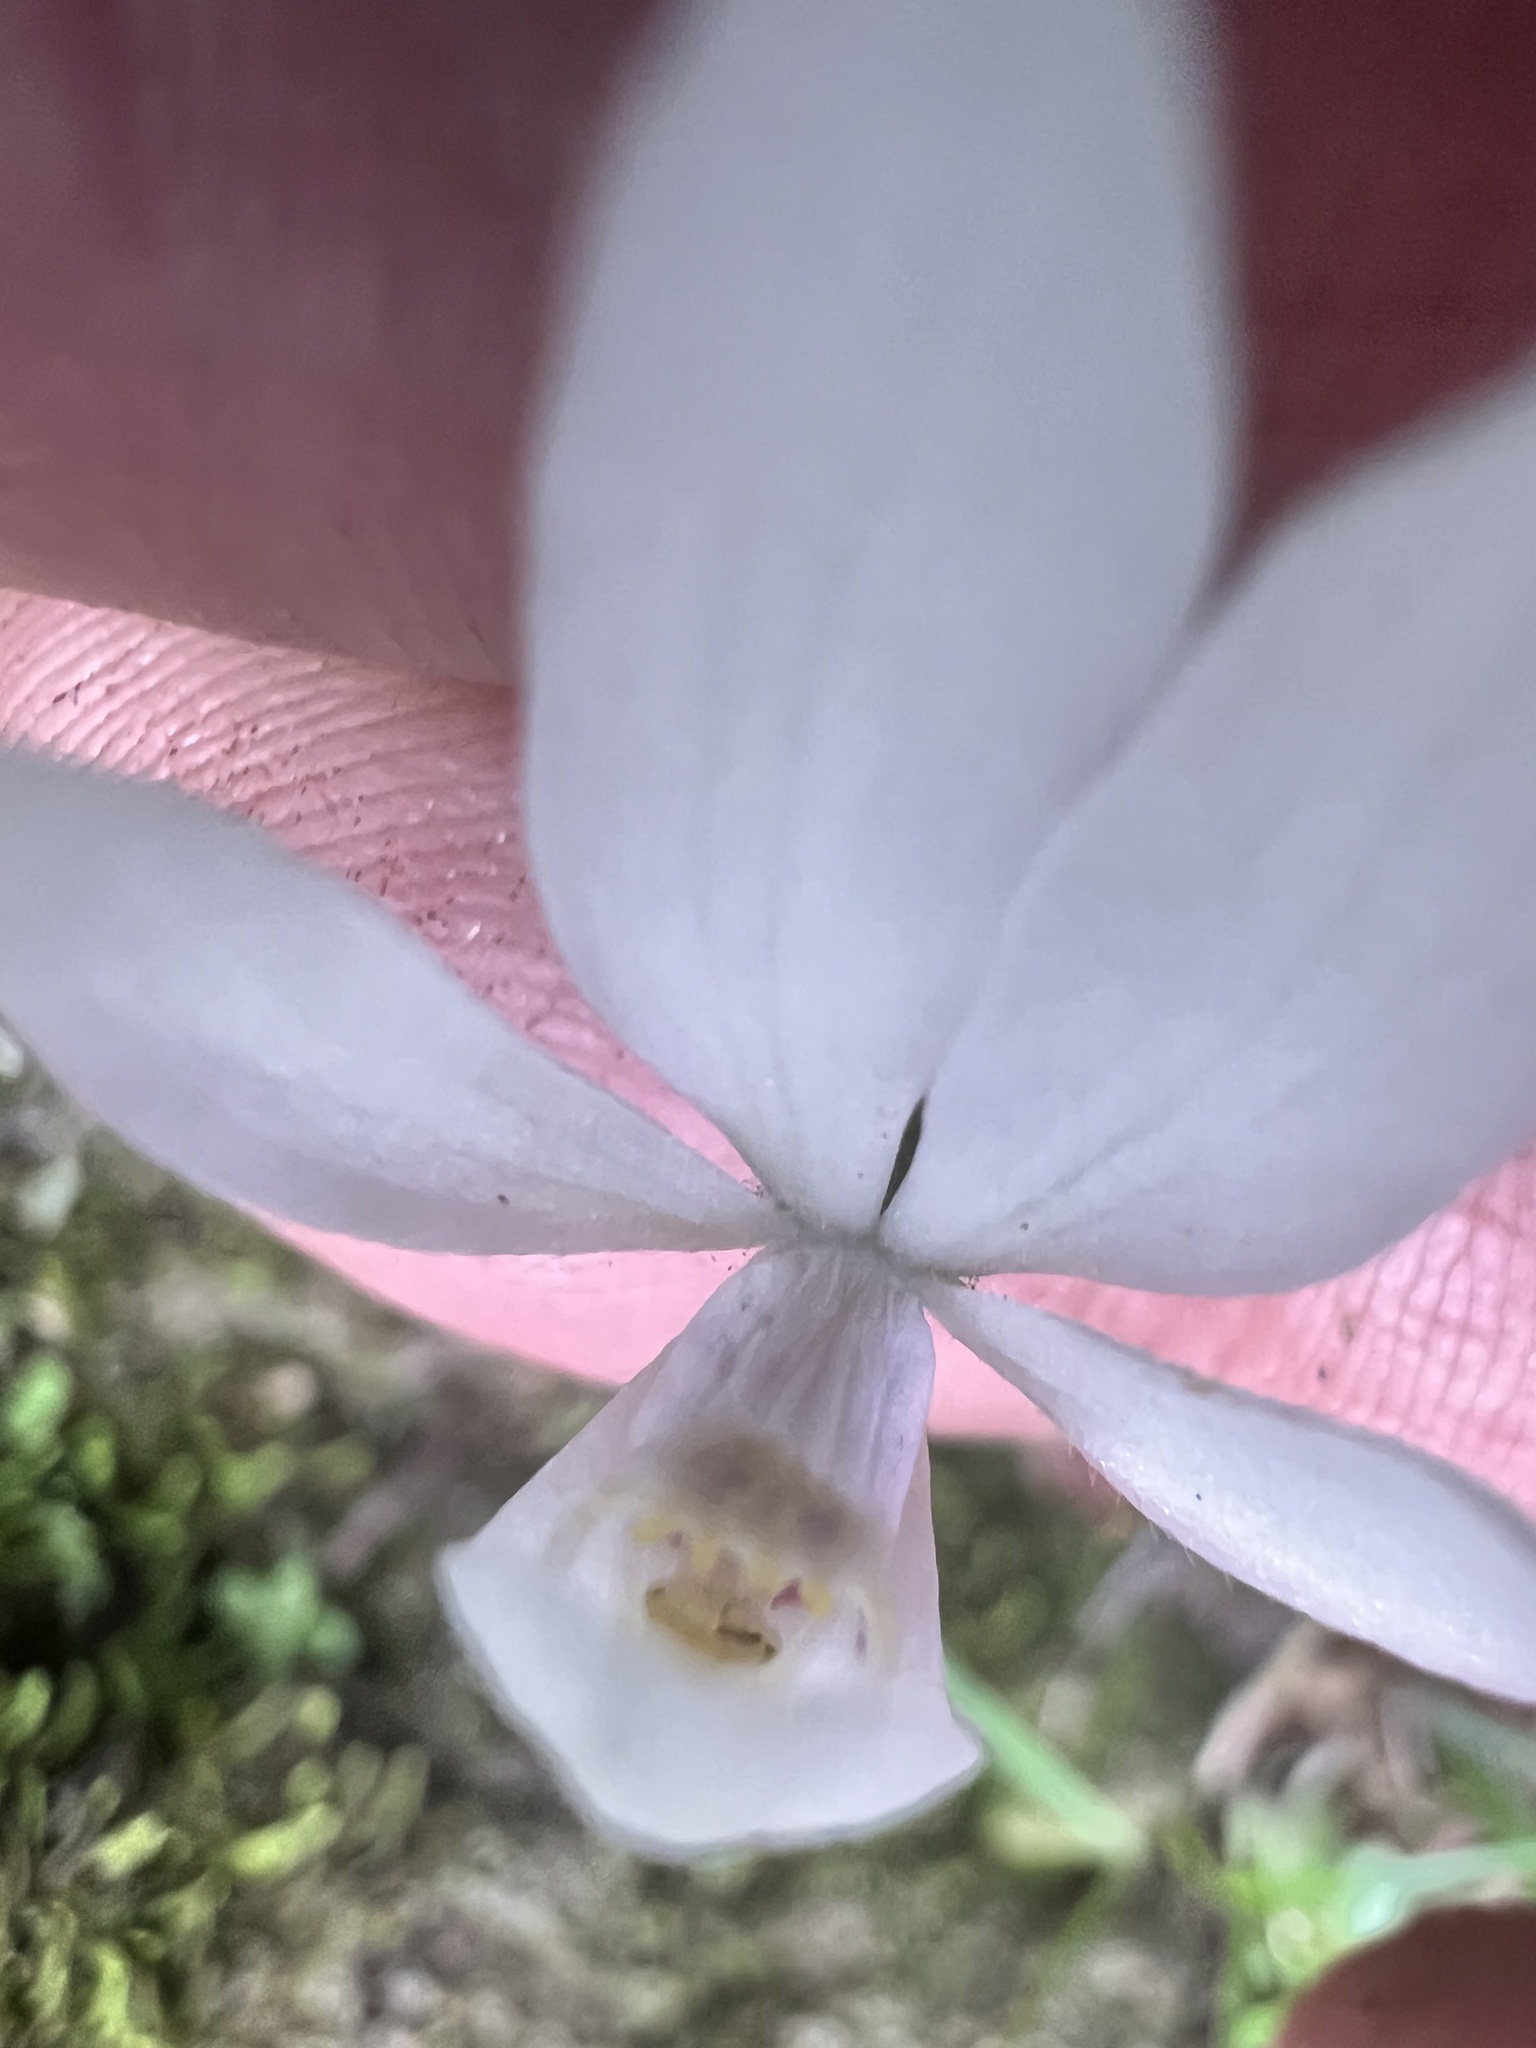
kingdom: Plantae
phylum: Tracheophyta
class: Liliopsida
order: Asparagales
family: Orchidaceae
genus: Caladenia
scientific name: Caladenia lyallii
